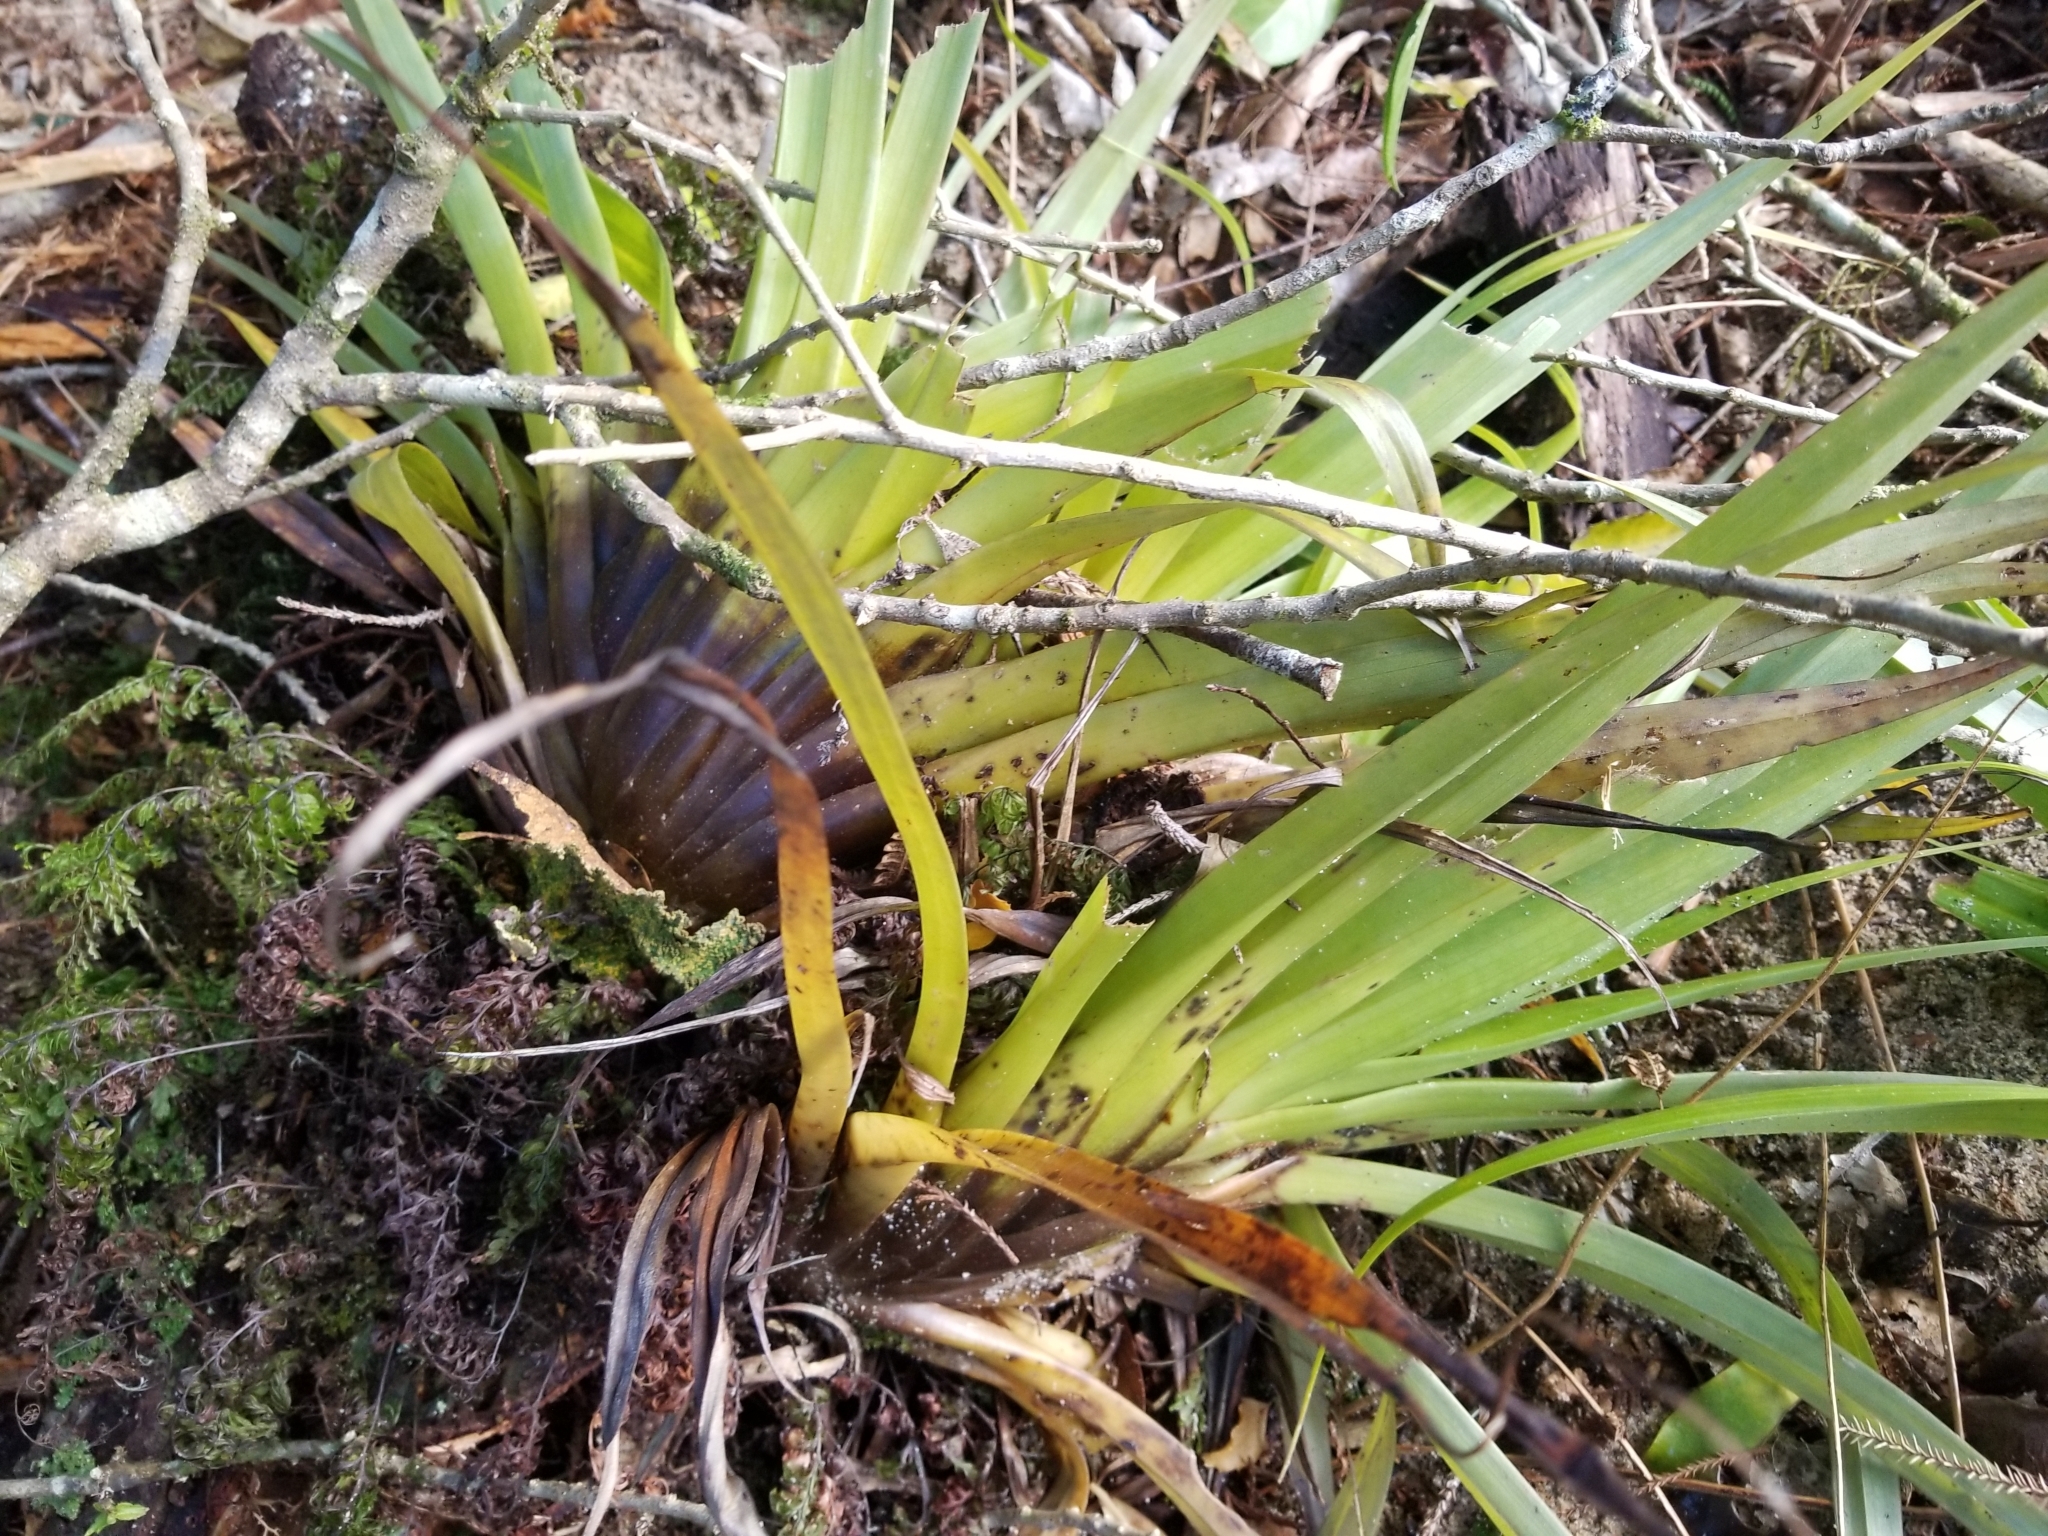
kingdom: Plantae
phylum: Tracheophyta
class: Liliopsida
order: Asparagales
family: Asteliaceae
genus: Astelia
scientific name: Astelia hastata
